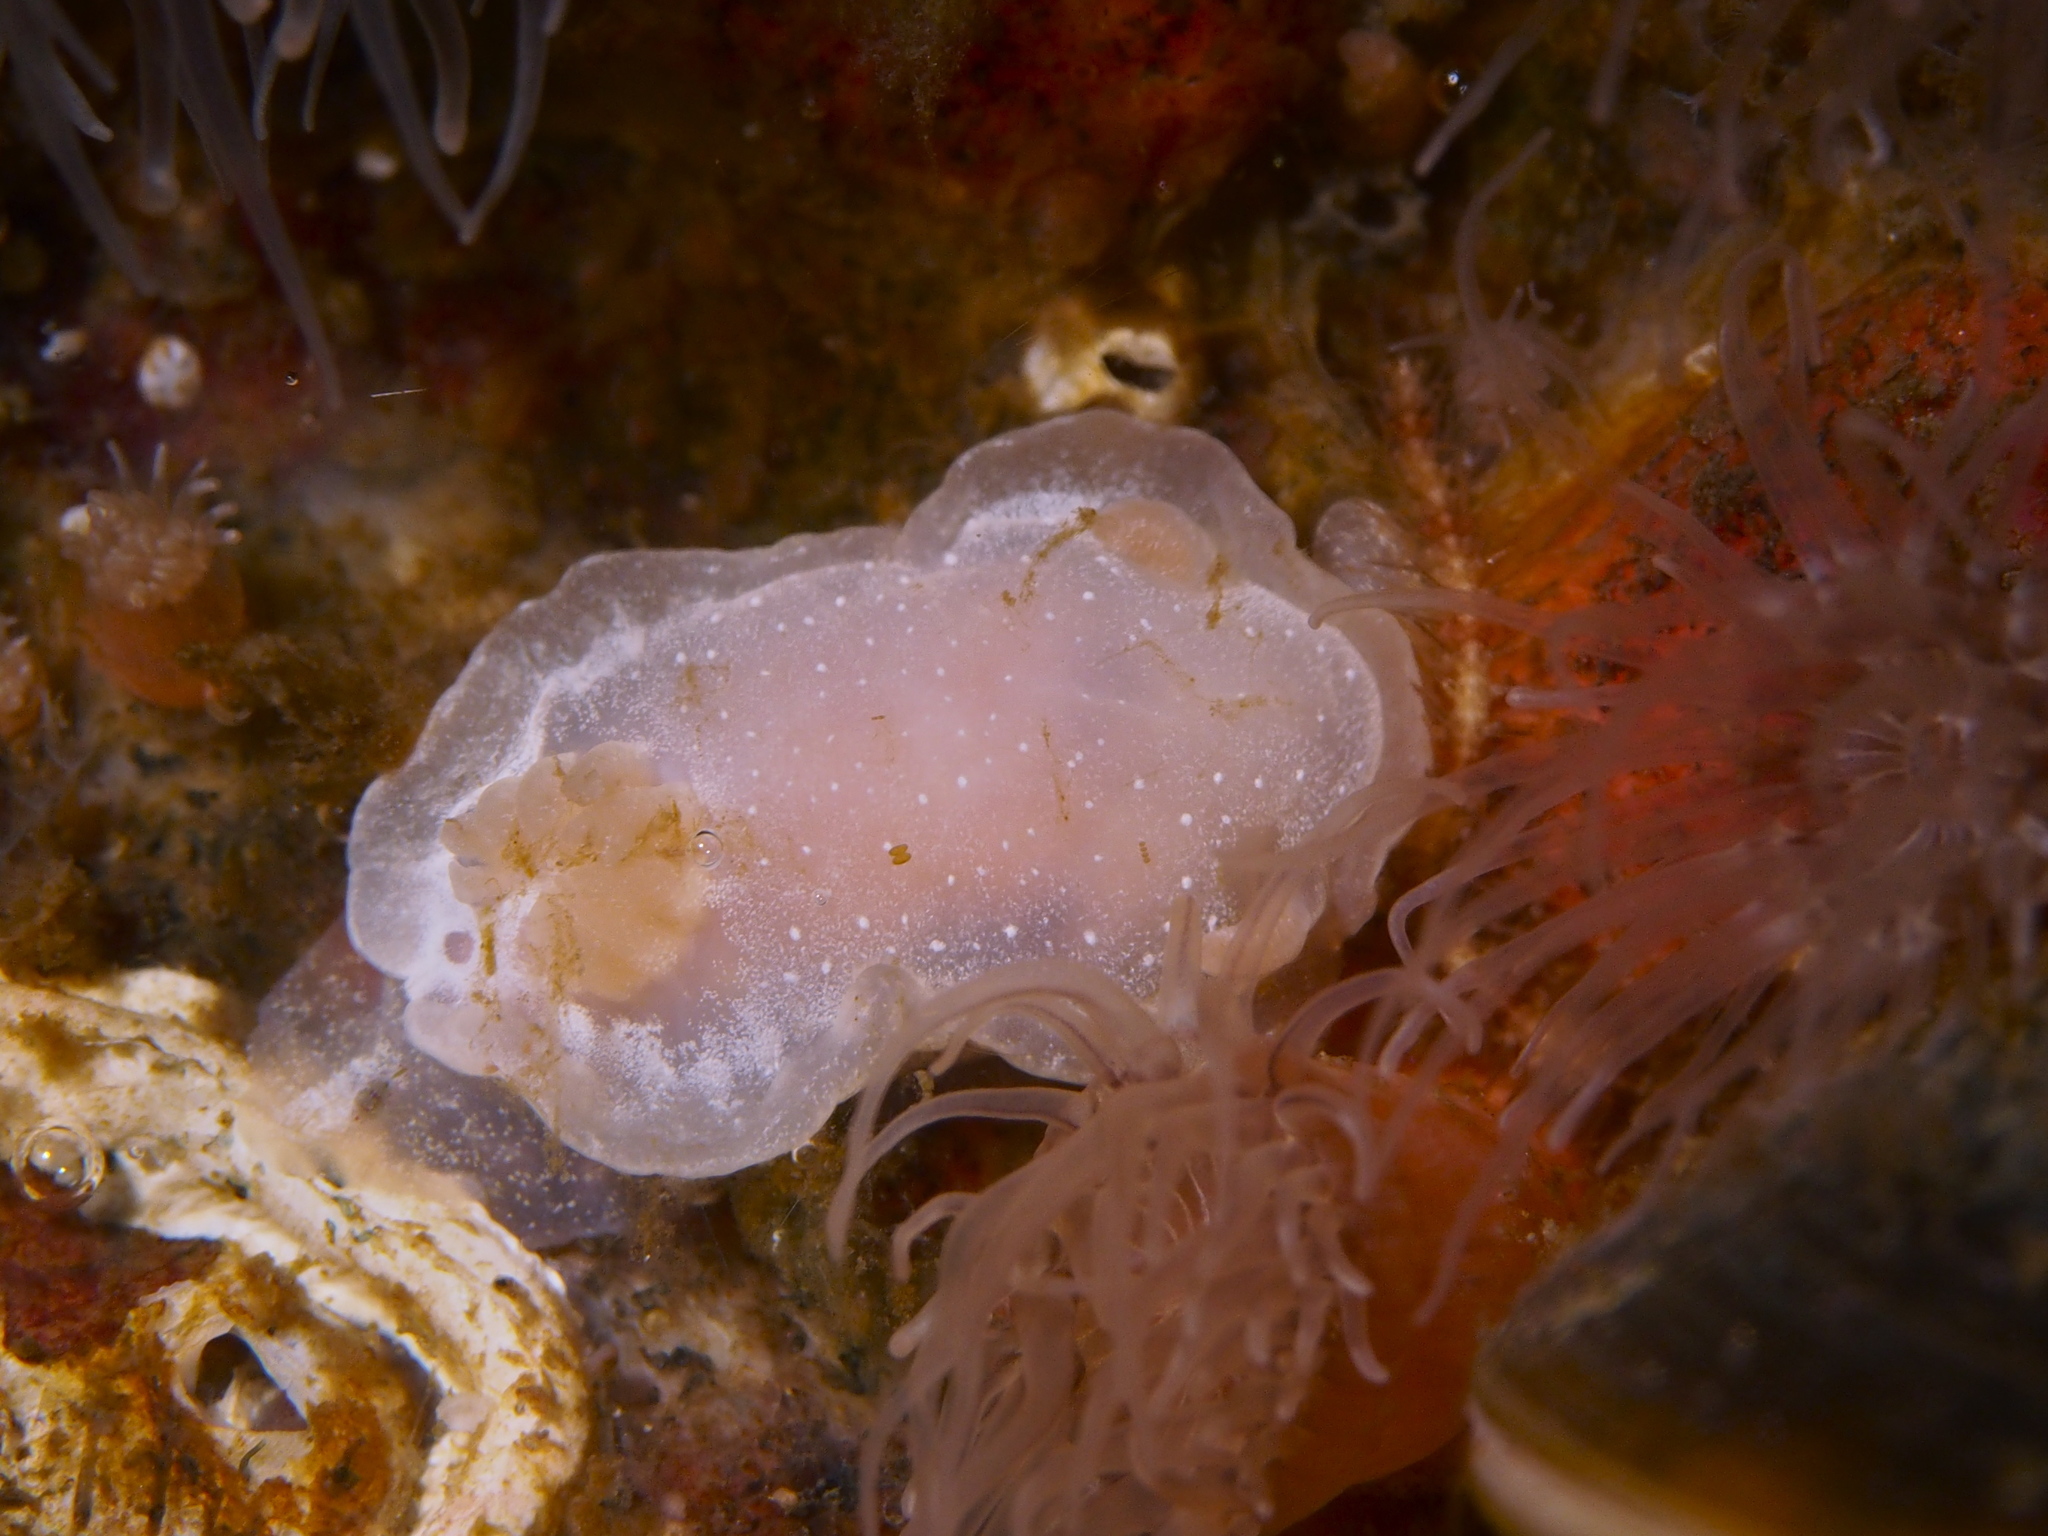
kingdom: Animalia
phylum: Mollusca
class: Gastropoda
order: Nudibranchia
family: Goniodorididae
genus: Okenia
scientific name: Okenia
